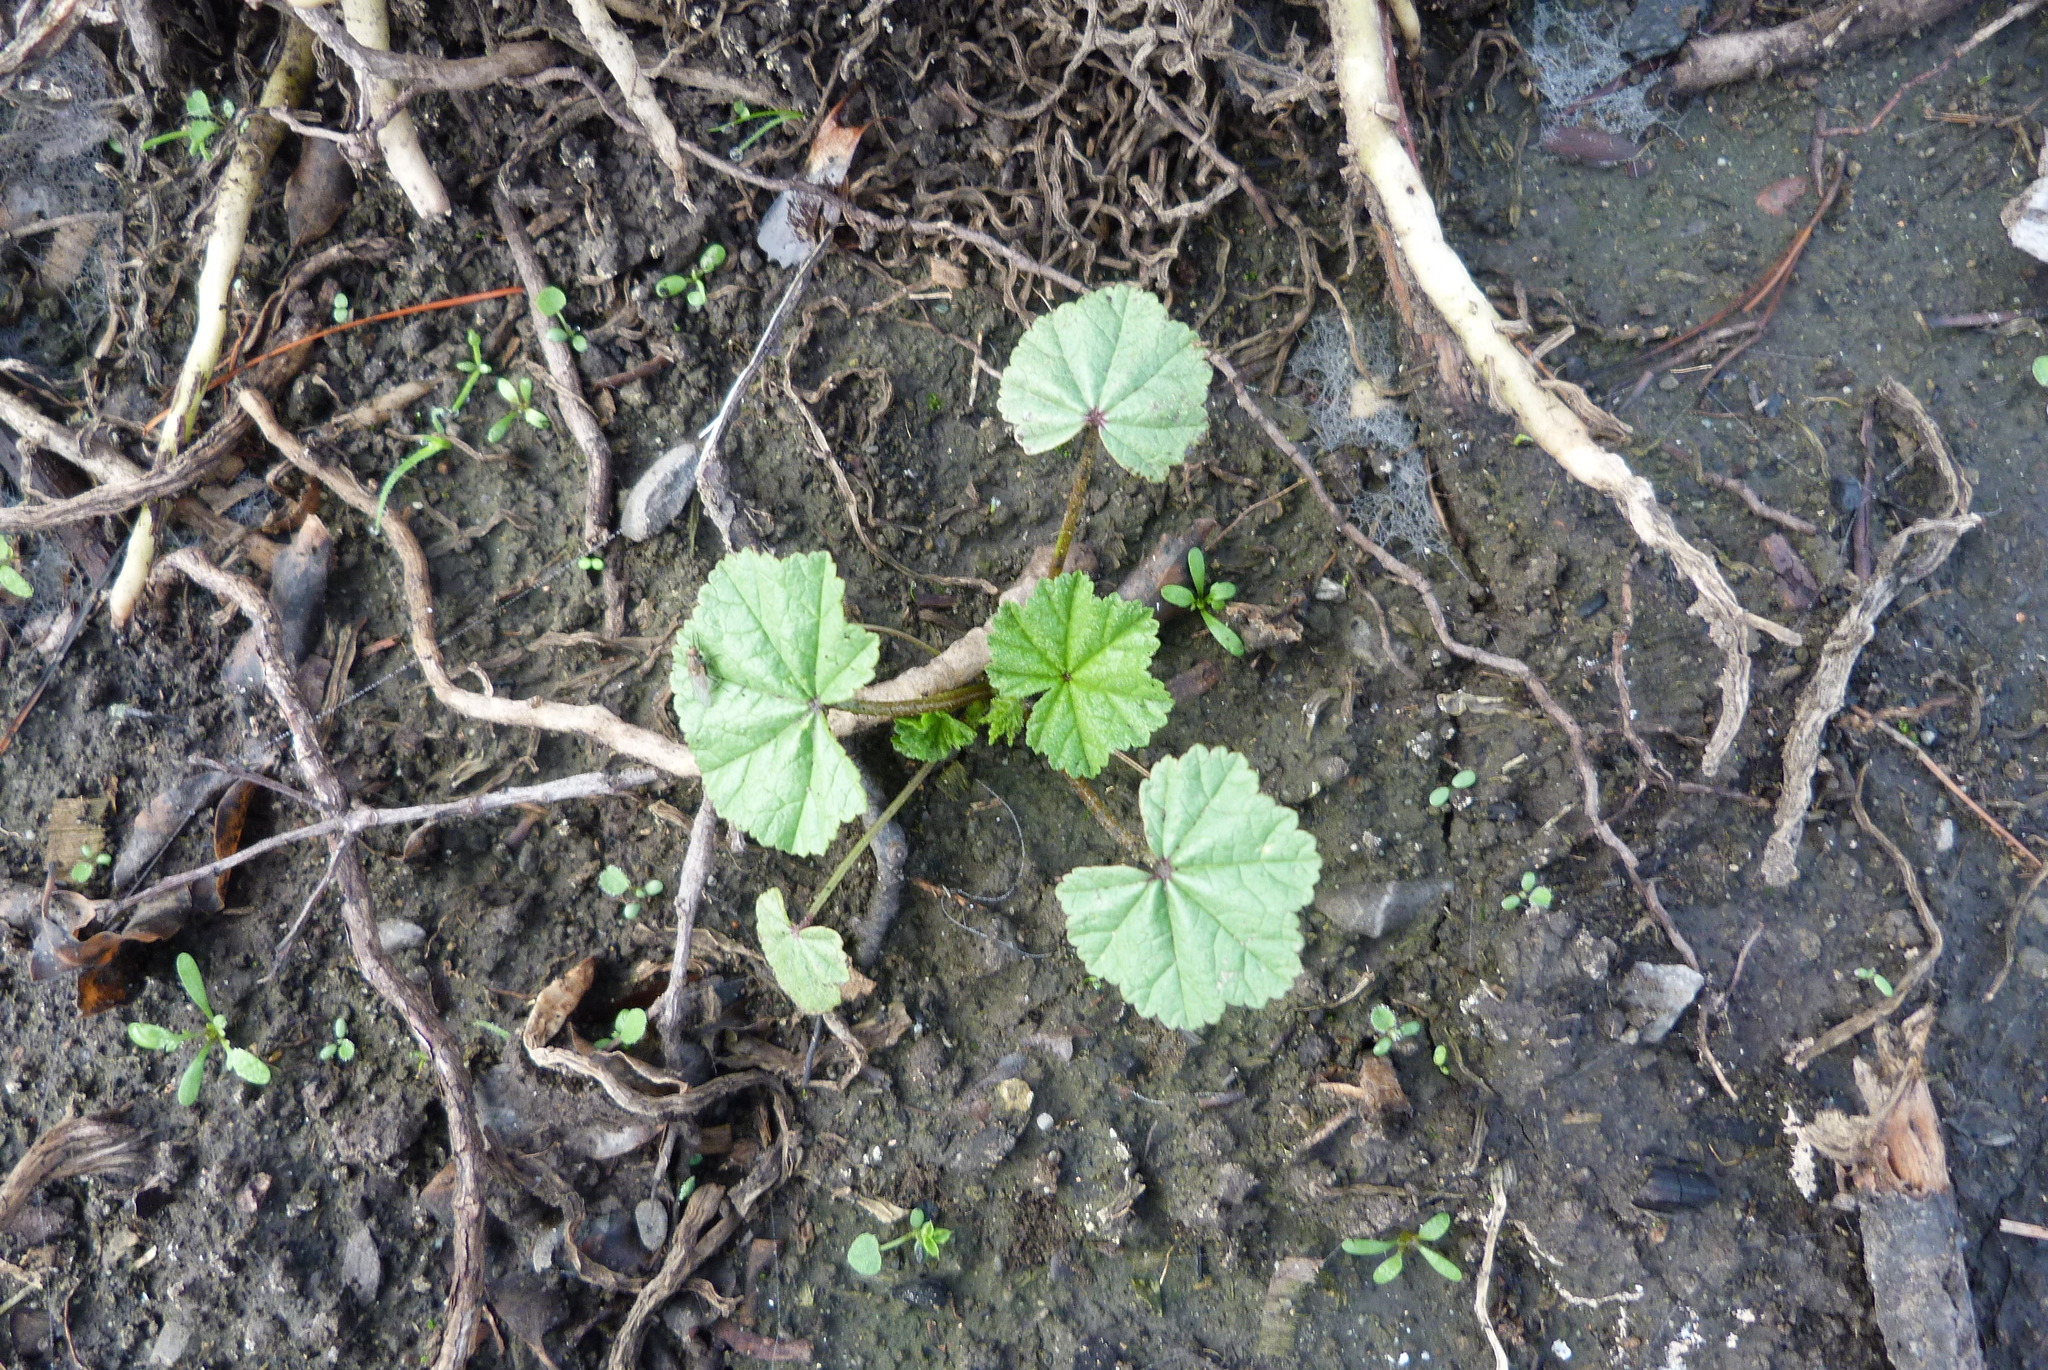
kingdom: Plantae
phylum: Tracheophyta
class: Magnoliopsida
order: Malvales
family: Malvaceae
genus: Malva
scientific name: Malva sylvestris
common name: Common mallow
